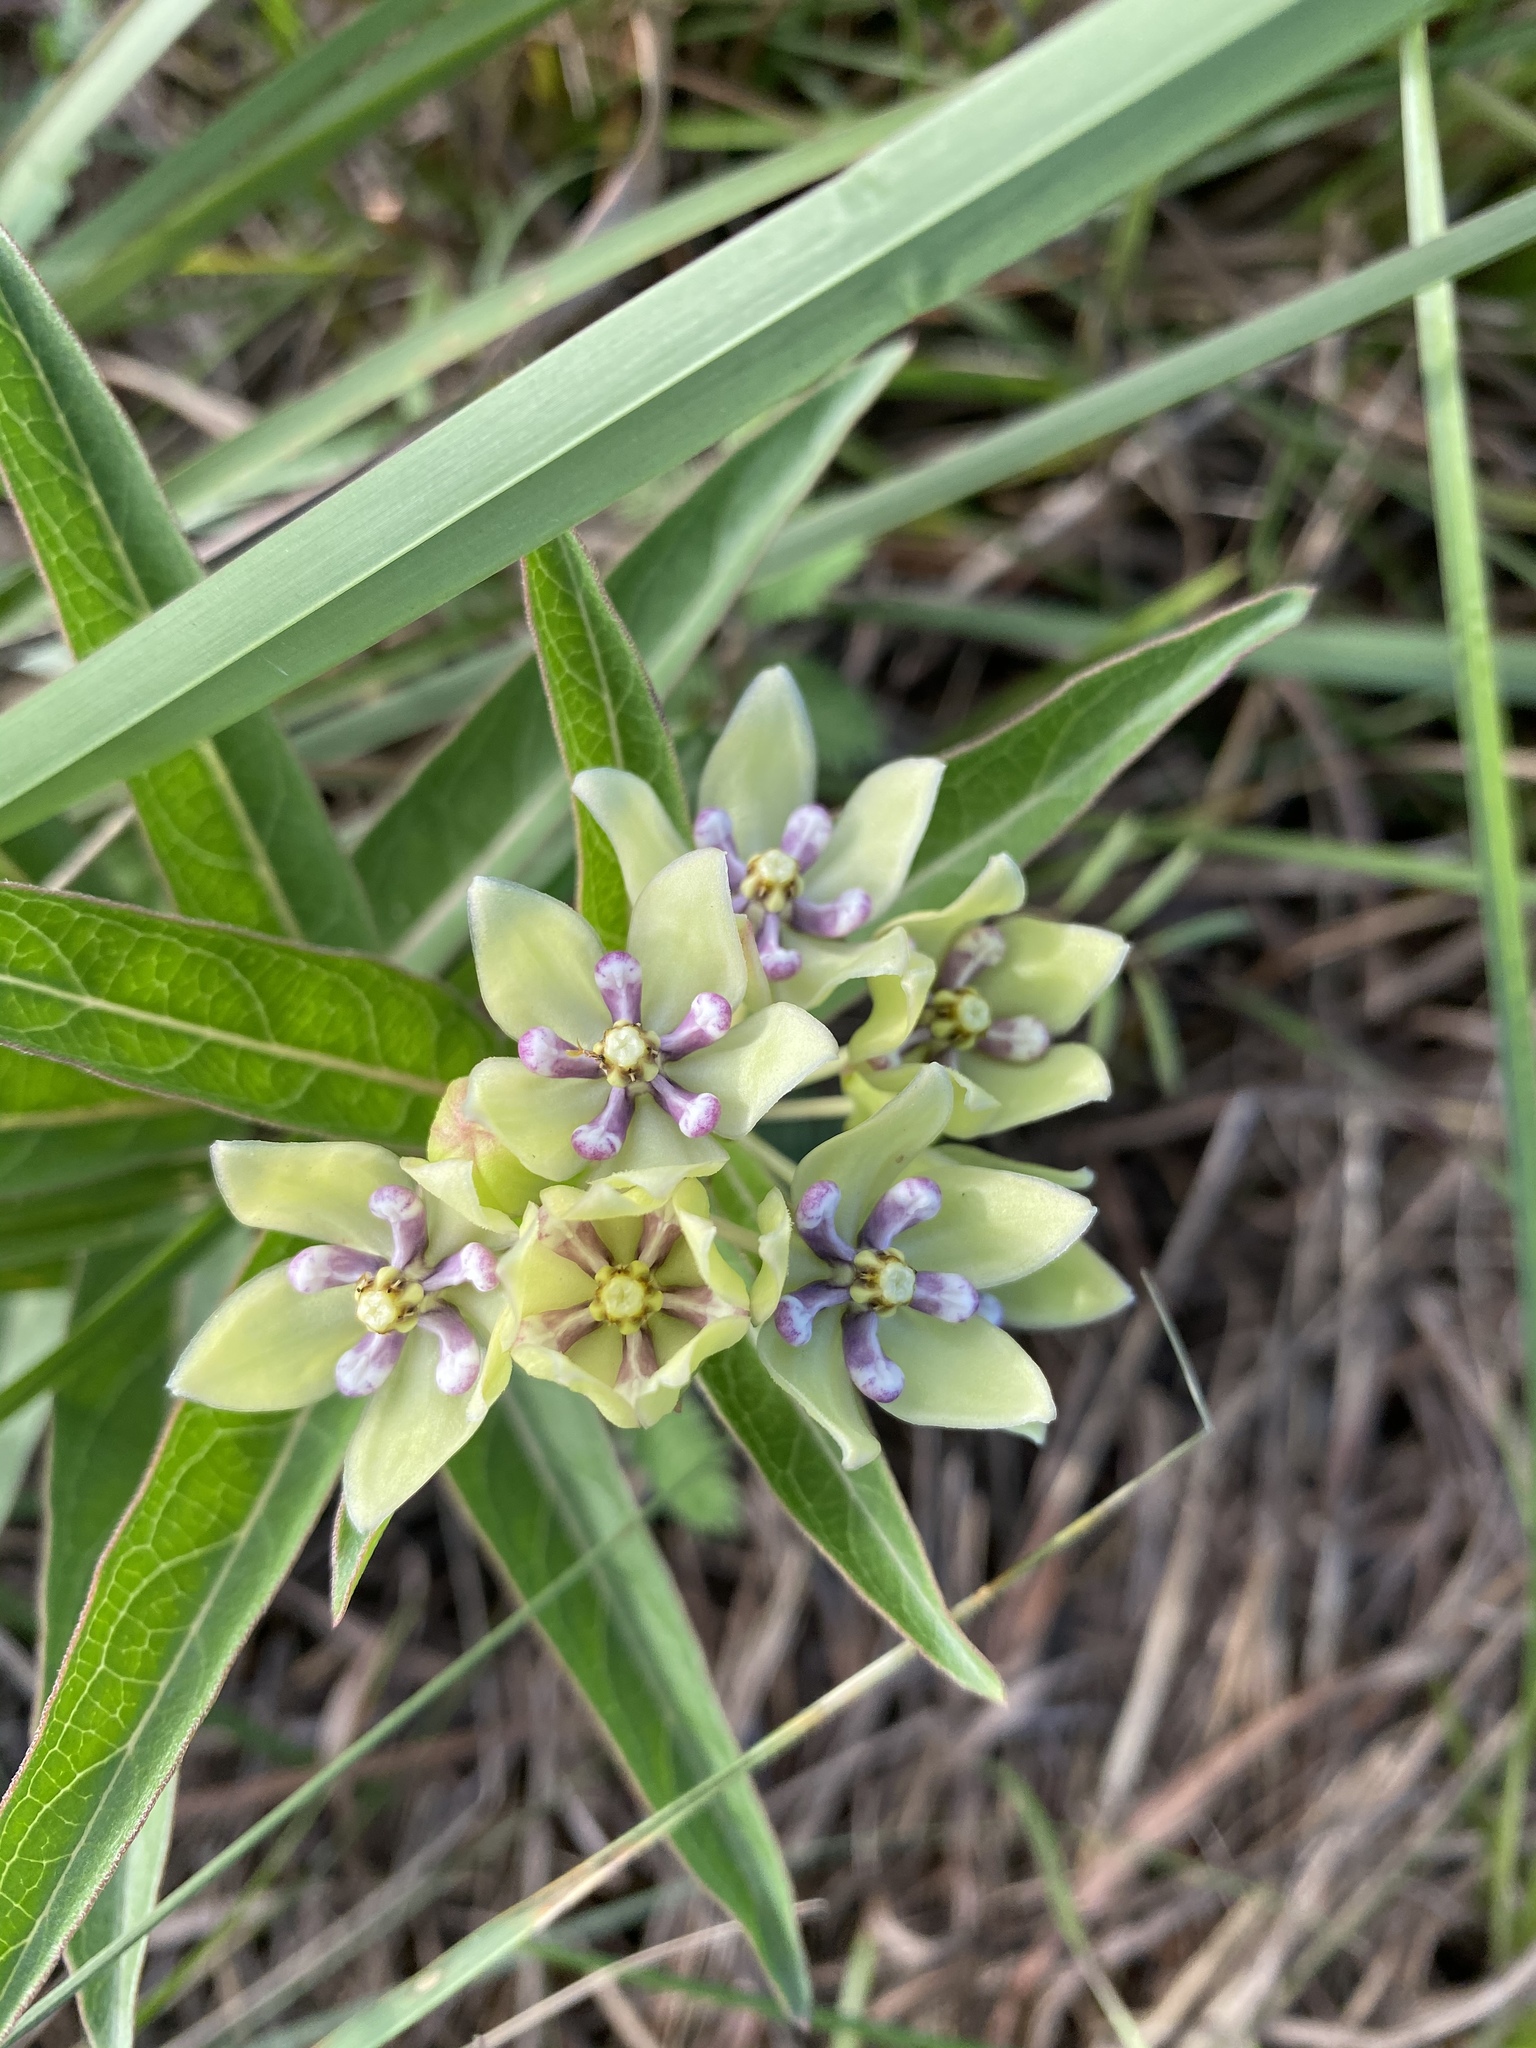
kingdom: Plantae
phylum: Tracheophyta
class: Magnoliopsida
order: Gentianales
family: Apocynaceae
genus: Asclepias
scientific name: Asclepias viridis
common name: Antelope-horns
